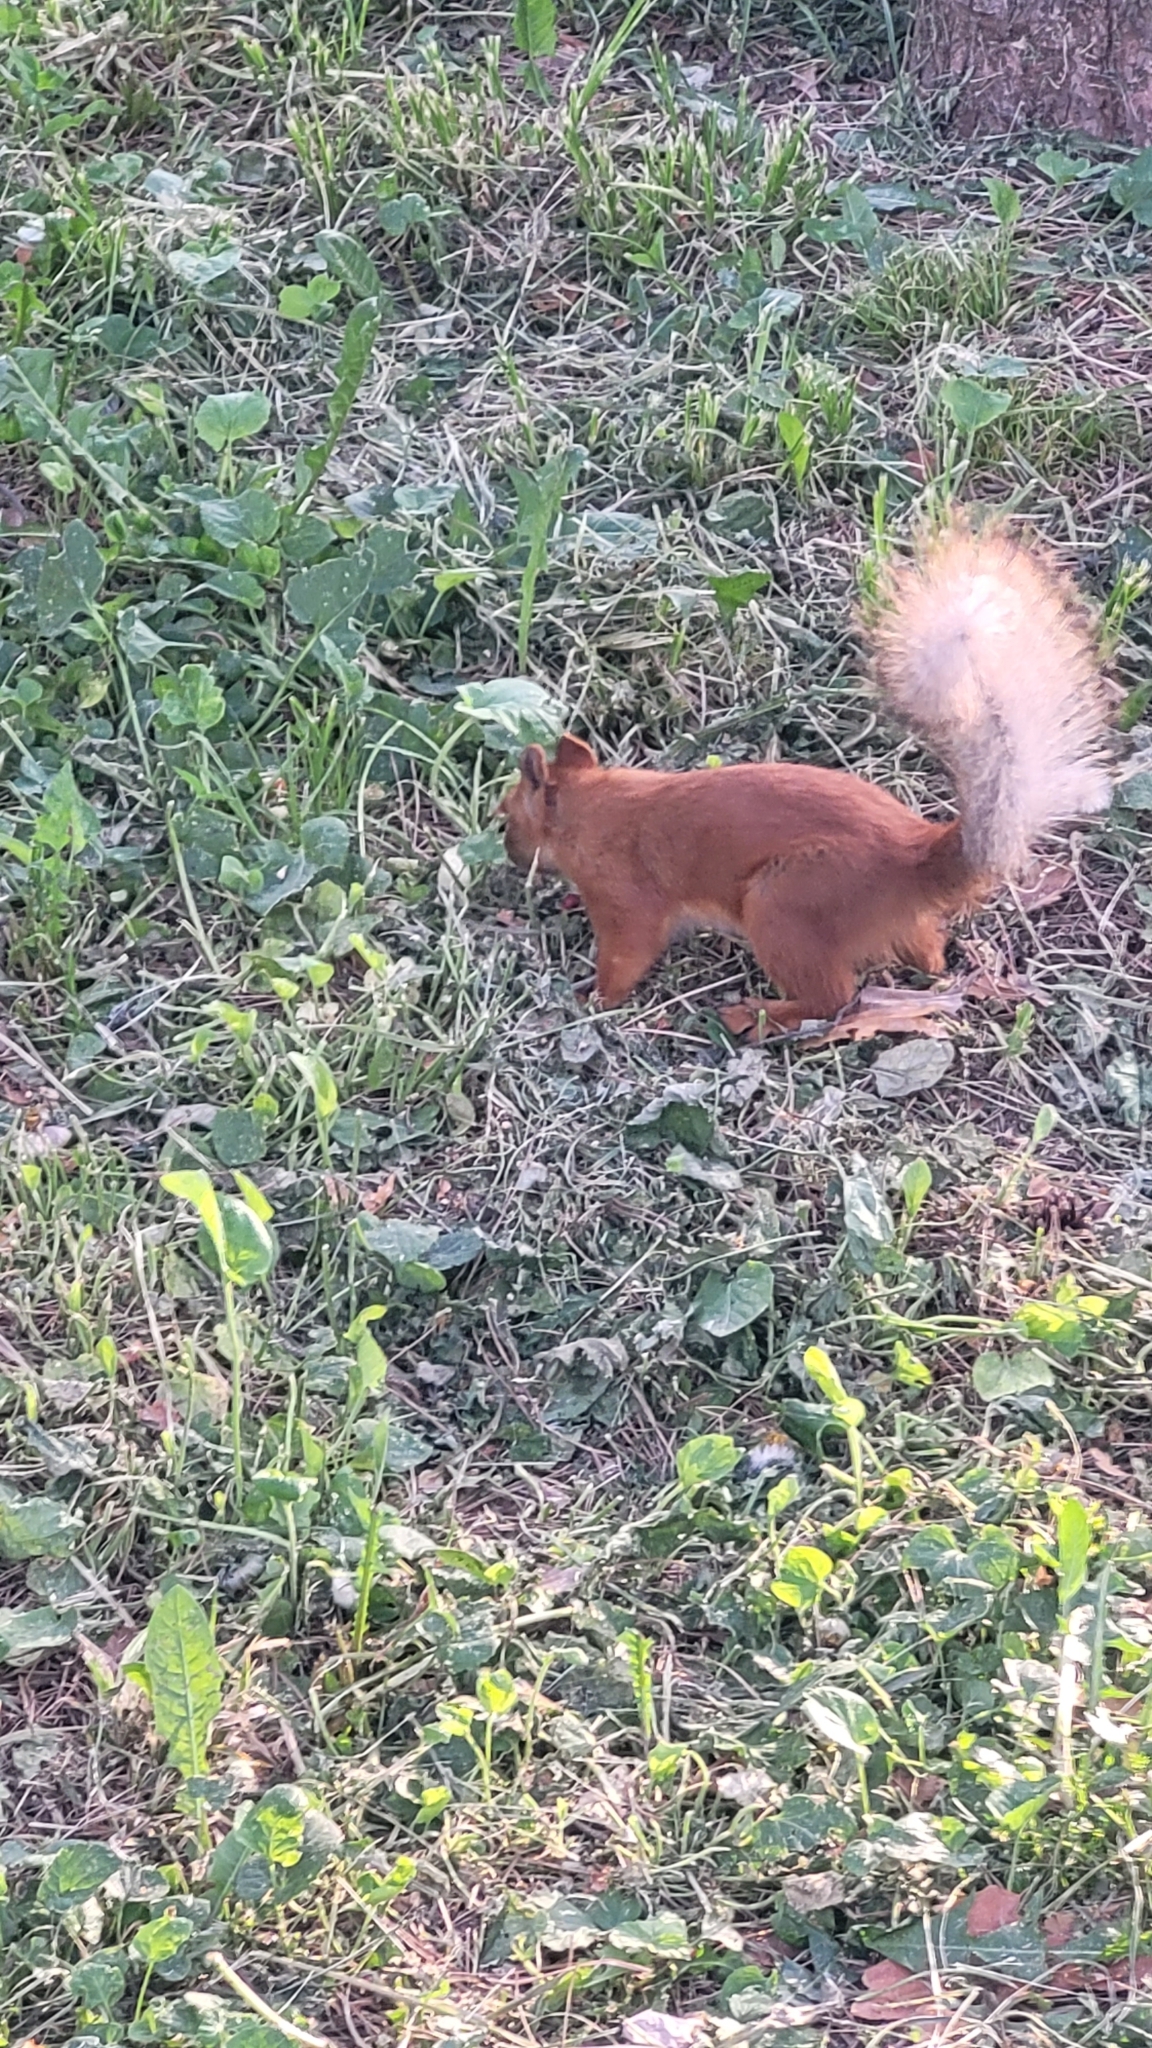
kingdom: Animalia
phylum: Chordata
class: Mammalia
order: Rodentia
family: Sciuridae
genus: Sciurus
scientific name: Sciurus vulgaris
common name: Eurasian red squirrel
